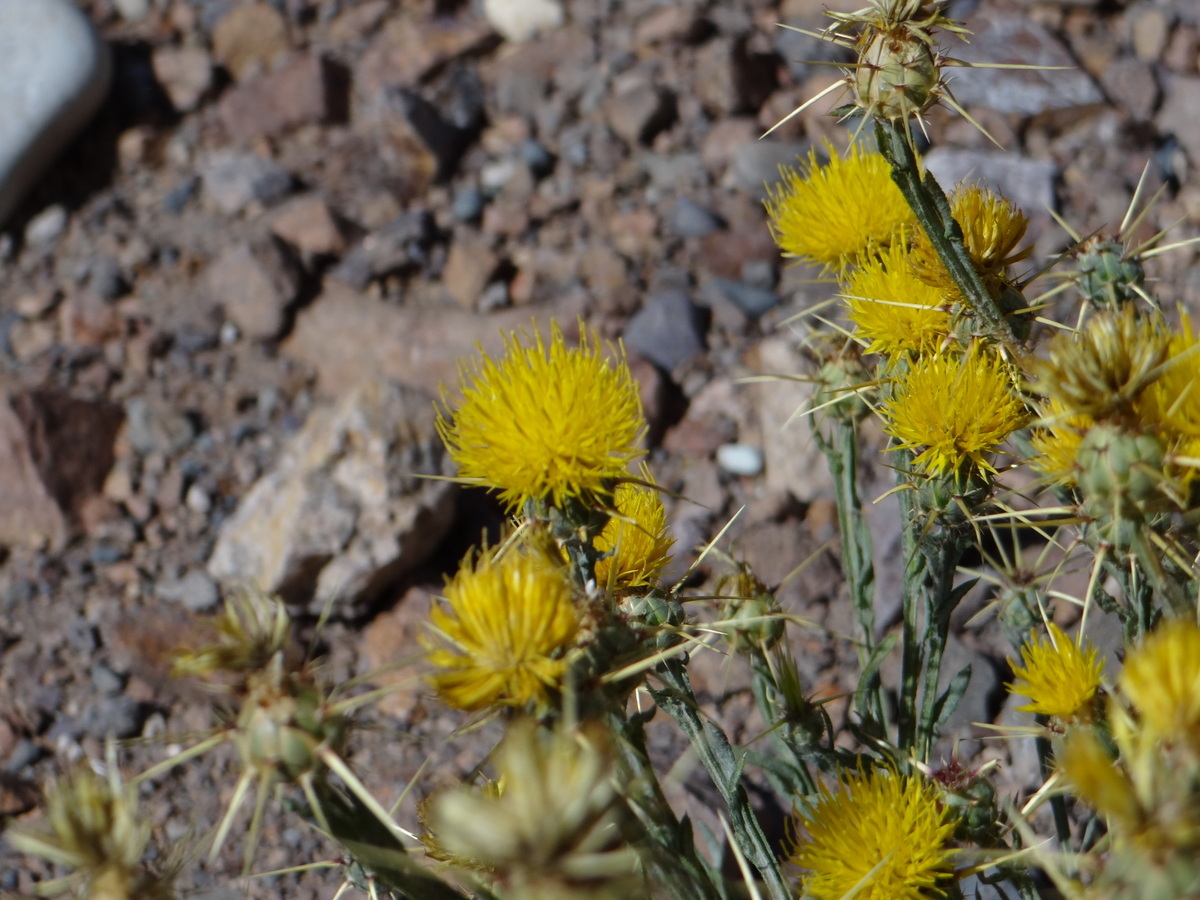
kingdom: Plantae
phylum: Tracheophyta
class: Magnoliopsida
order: Asterales
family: Asteraceae
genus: Centaurea
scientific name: Centaurea solstitialis
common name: Yellow star-thistle
